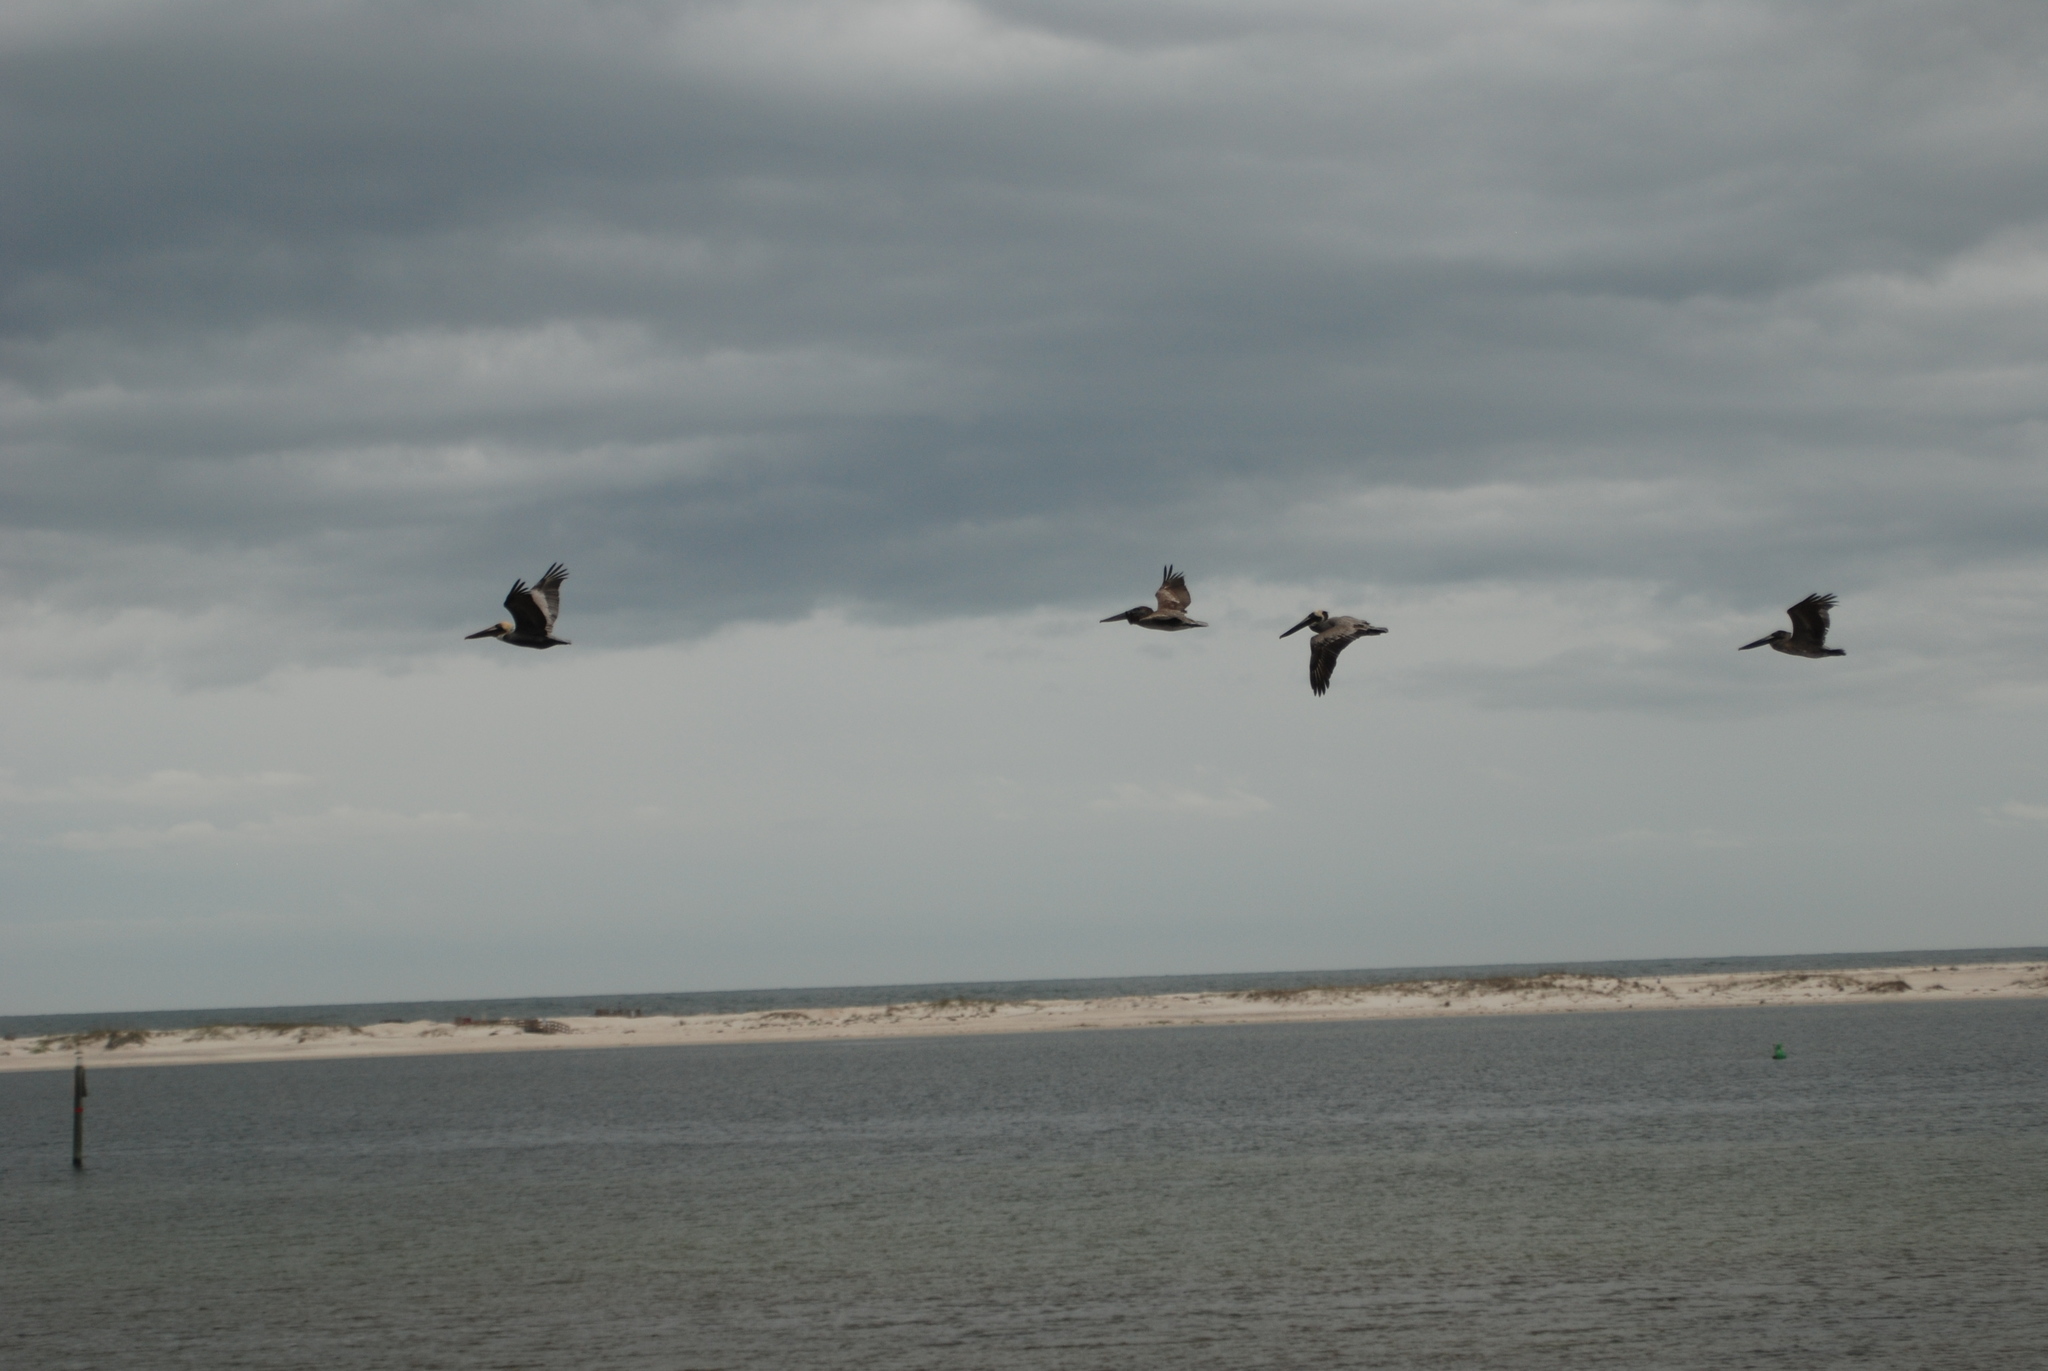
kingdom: Animalia
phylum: Chordata
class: Aves
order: Pelecaniformes
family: Pelecanidae
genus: Pelecanus
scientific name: Pelecanus occidentalis
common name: Brown pelican
